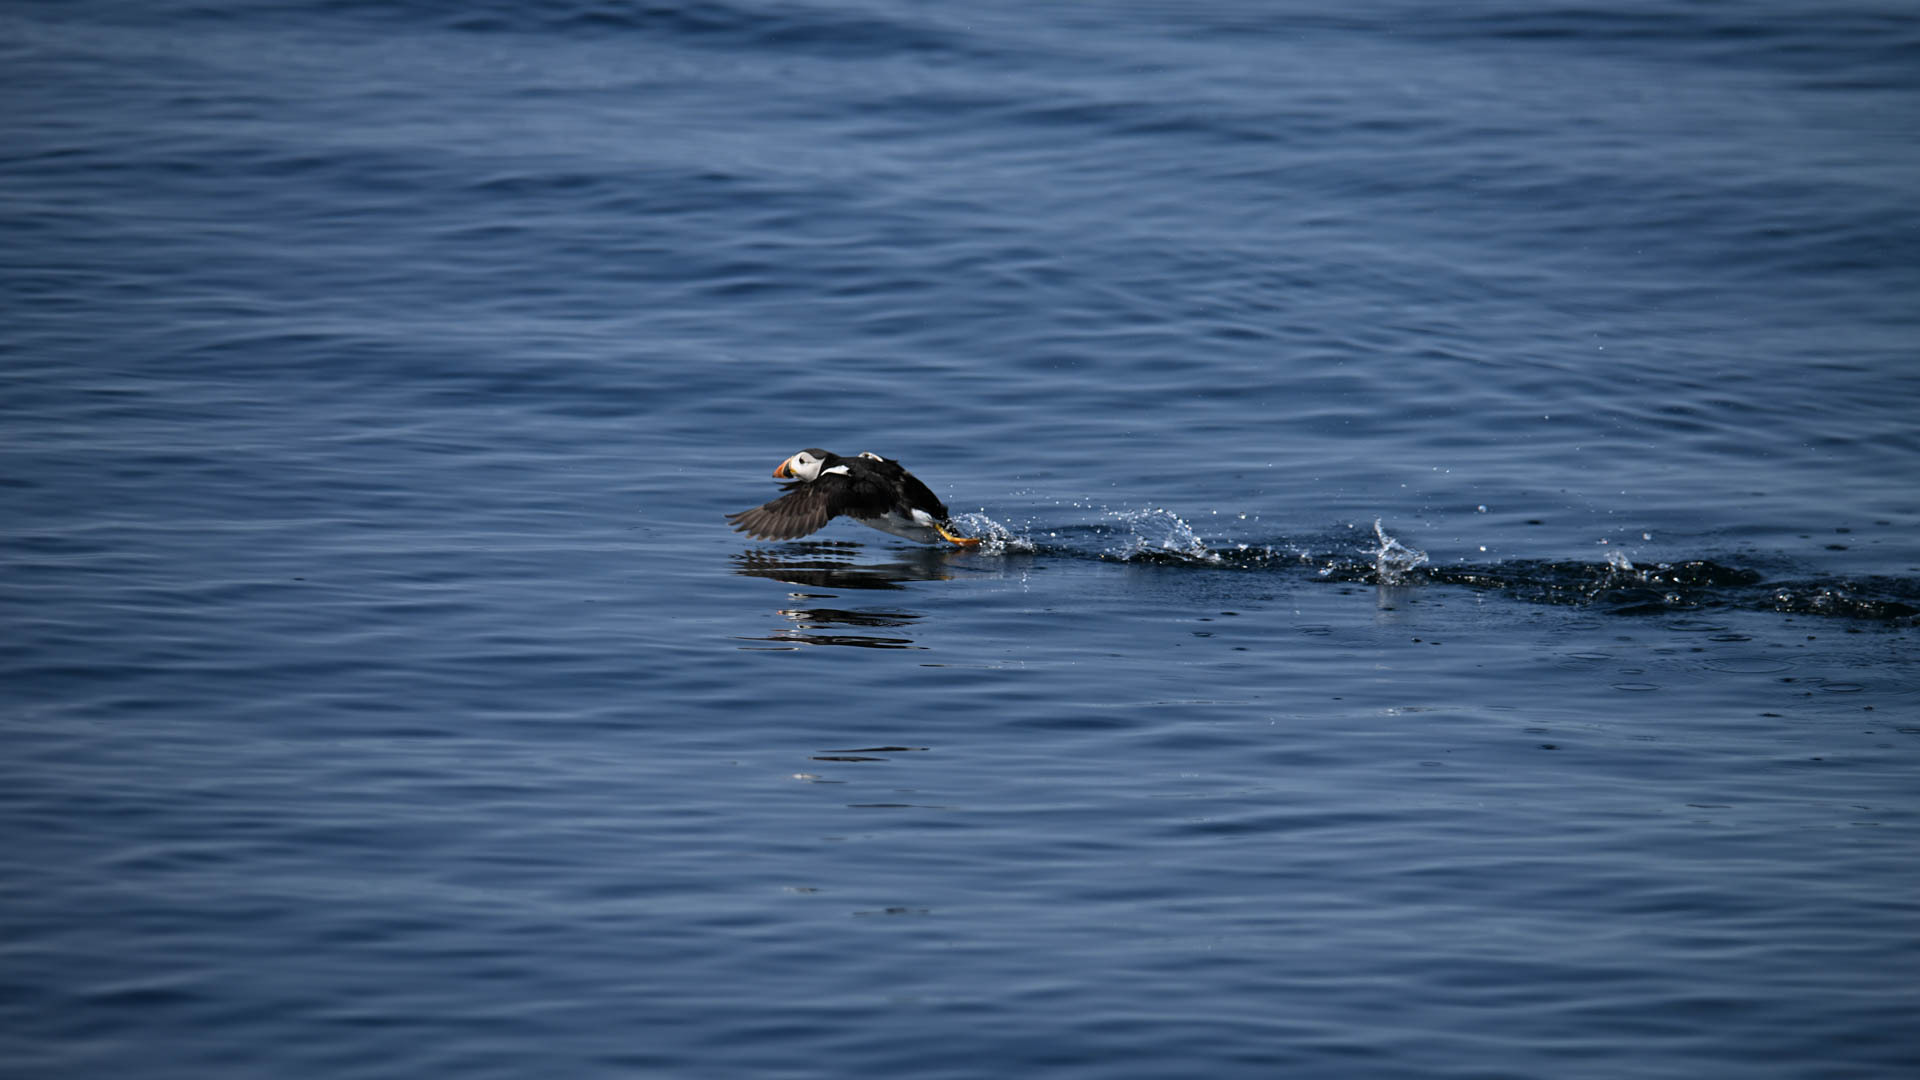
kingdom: Animalia
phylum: Chordata
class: Aves
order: Charadriiformes
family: Alcidae
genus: Fratercula
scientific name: Fratercula arctica
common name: Atlantic puffin
